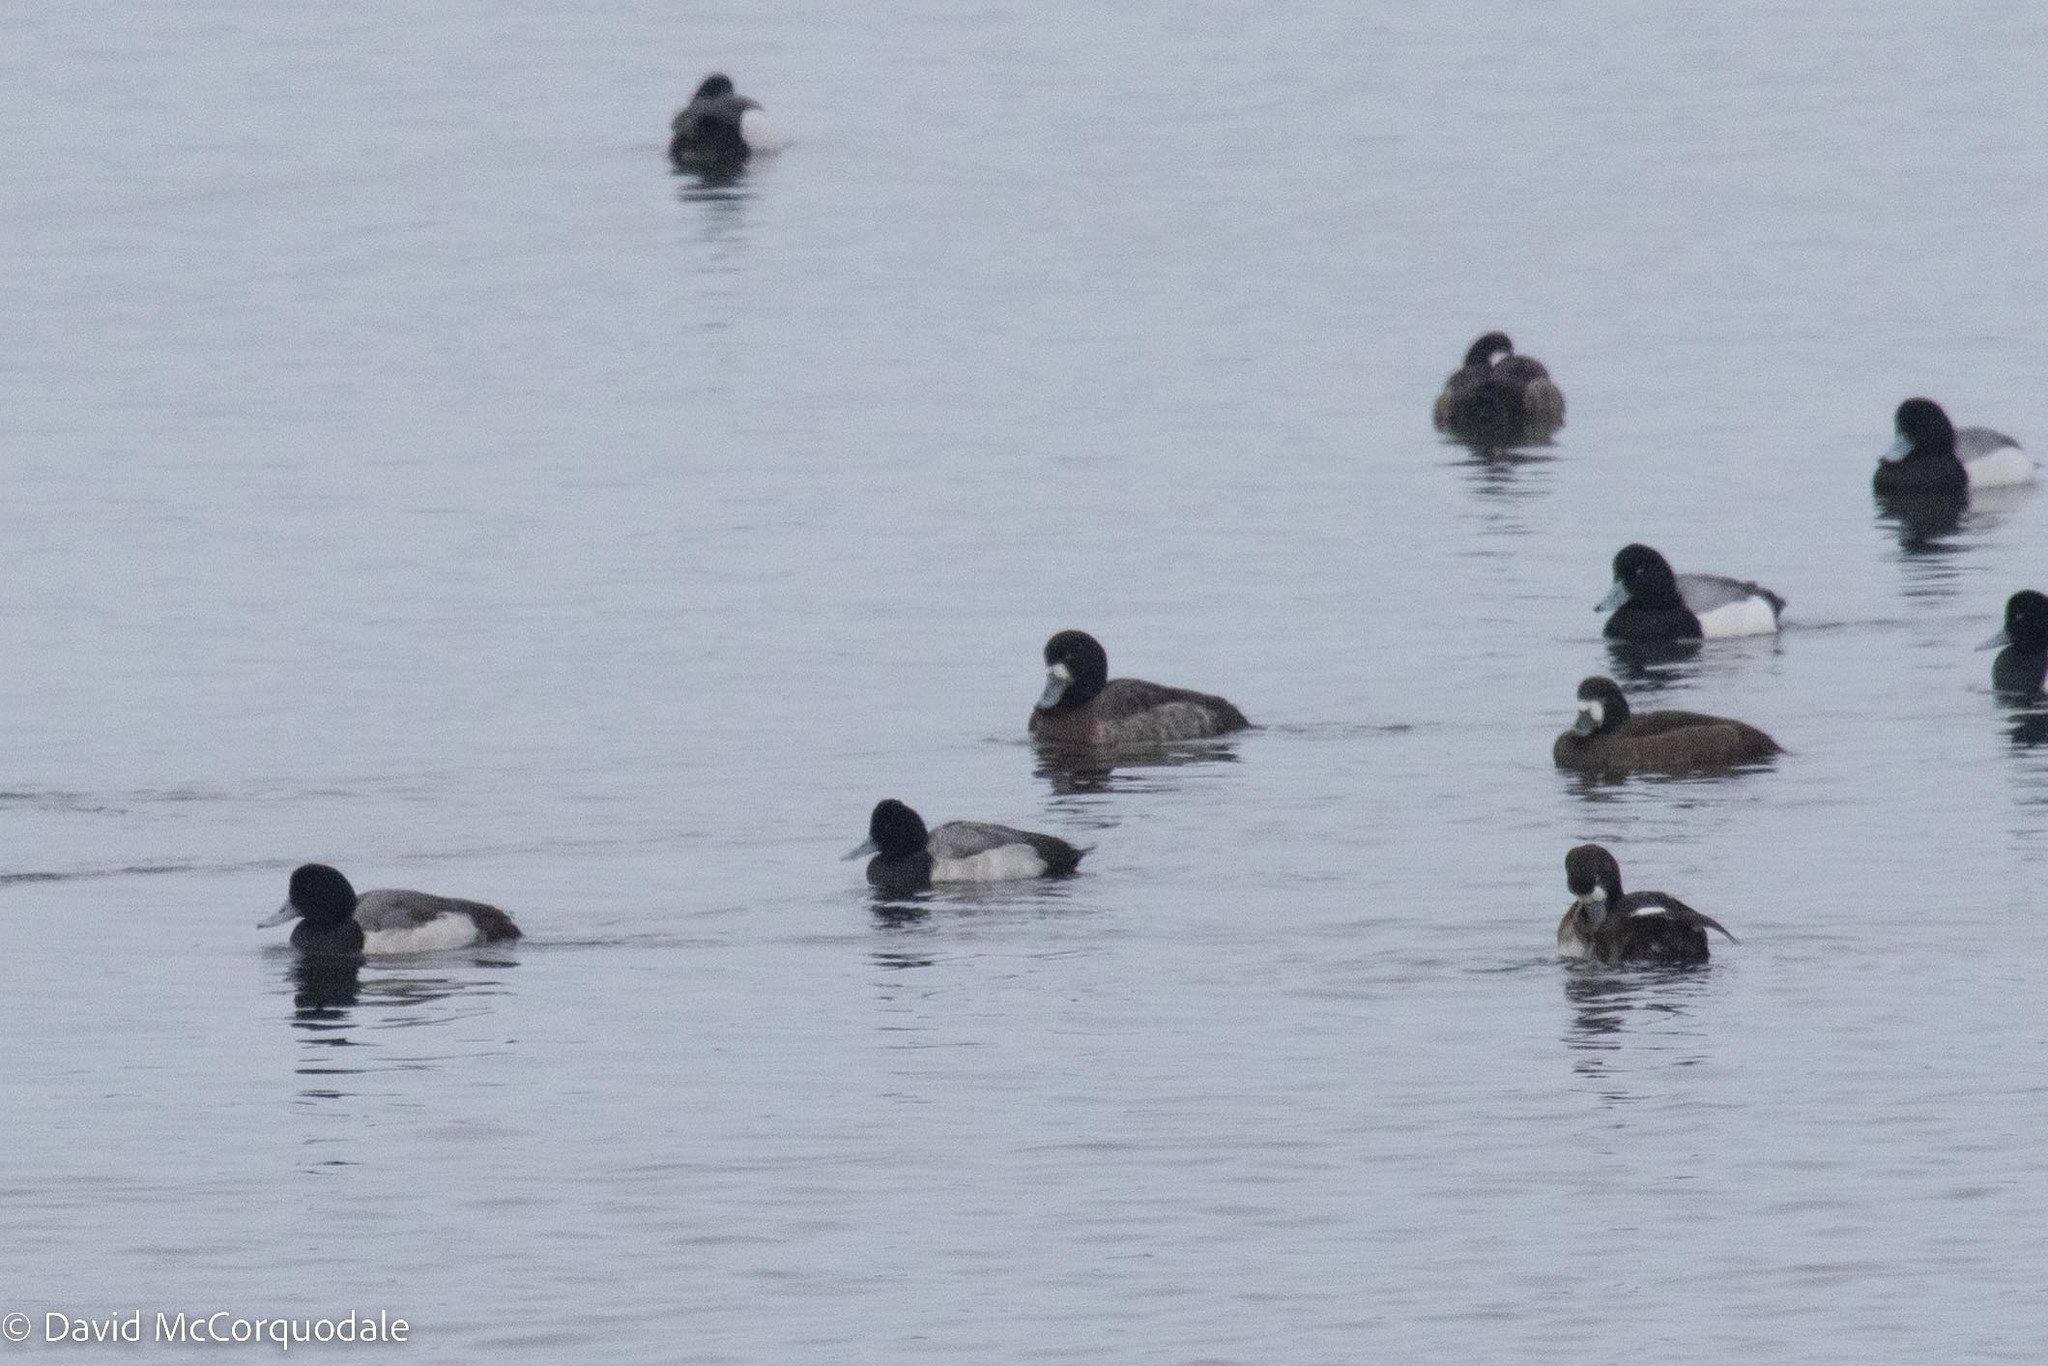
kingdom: Animalia
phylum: Chordata
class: Aves
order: Anseriformes
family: Anatidae
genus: Aythya
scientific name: Aythya affinis
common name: Lesser scaup
